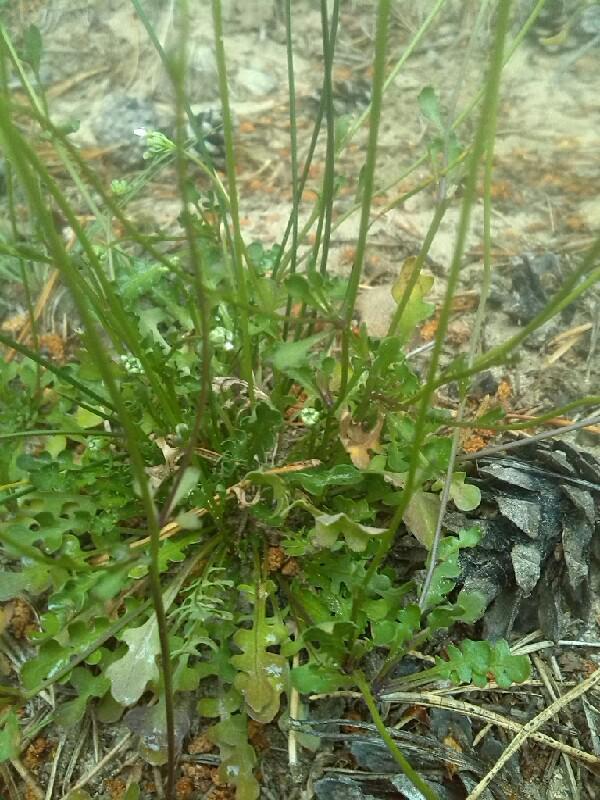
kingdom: Plantae
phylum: Tracheophyta
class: Magnoliopsida
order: Brassicales
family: Brassicaceae
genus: Teesdalia
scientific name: Teesdalia nudicaulis
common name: Shepherd's cress
